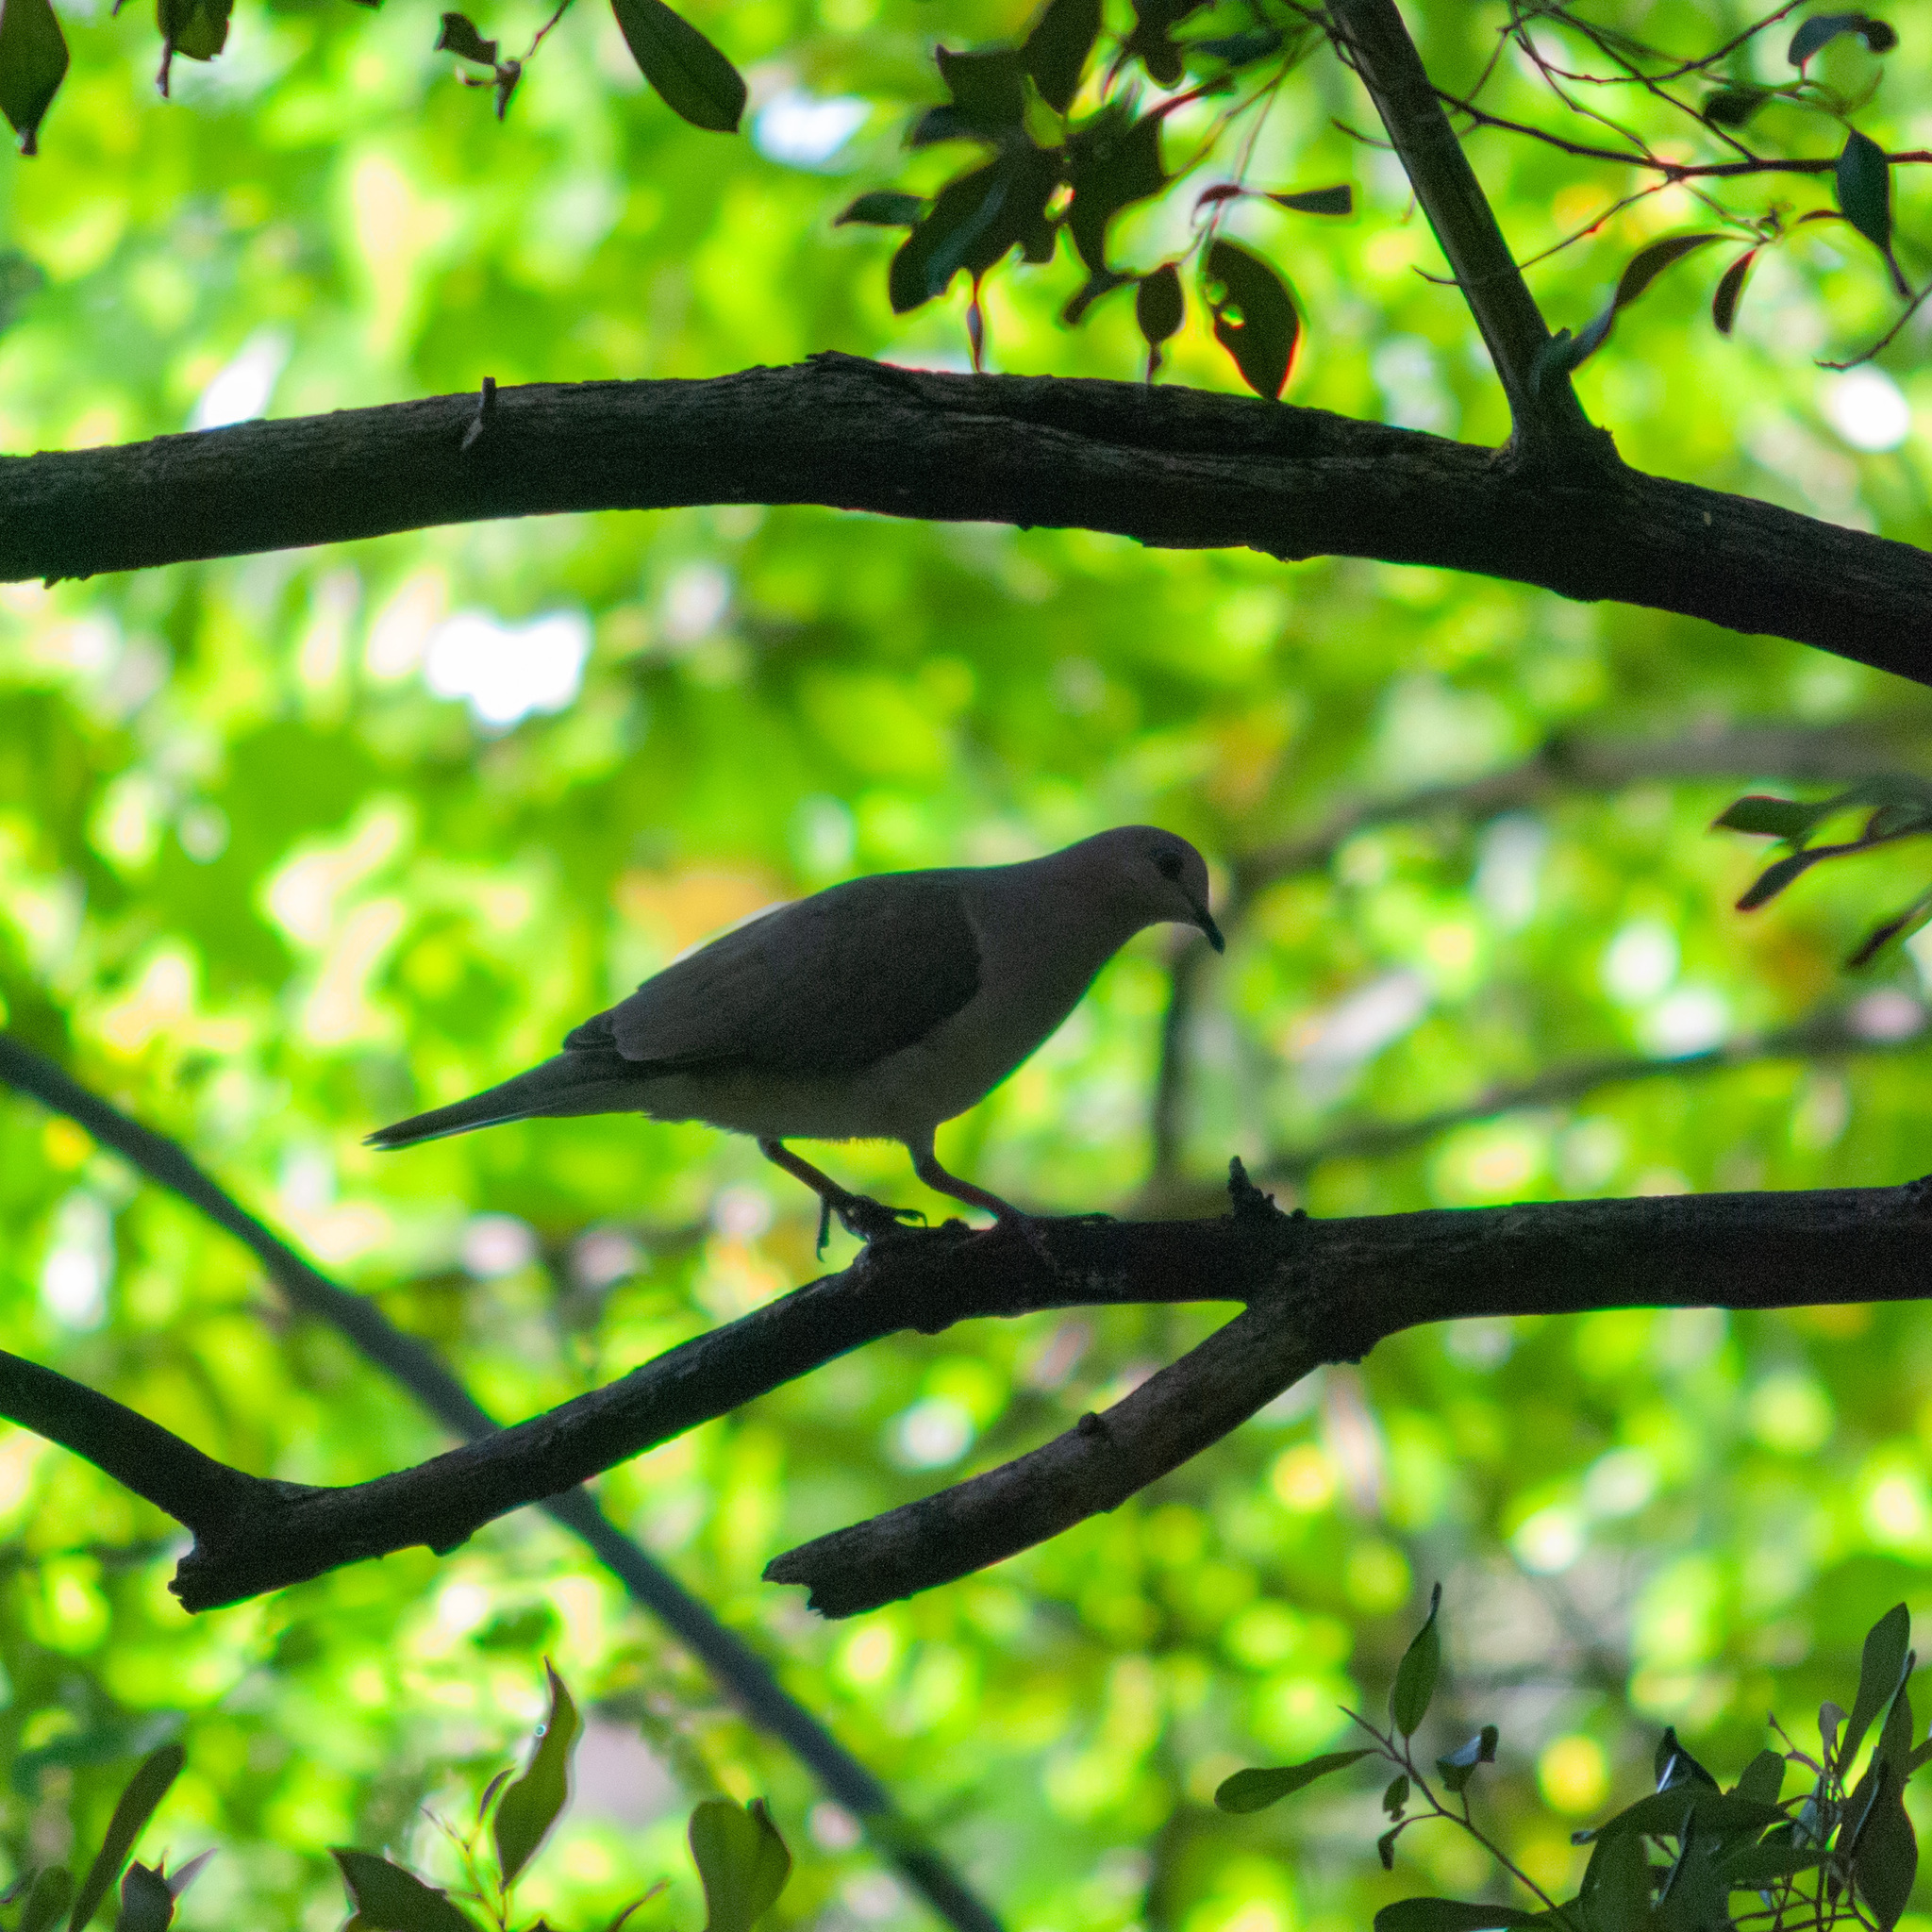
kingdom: Animalia
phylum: Chordata
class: Aves
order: Columbiformes
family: Columbidae
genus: Leptotila
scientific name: Leptotila verreauxi
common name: White-tipped dove
